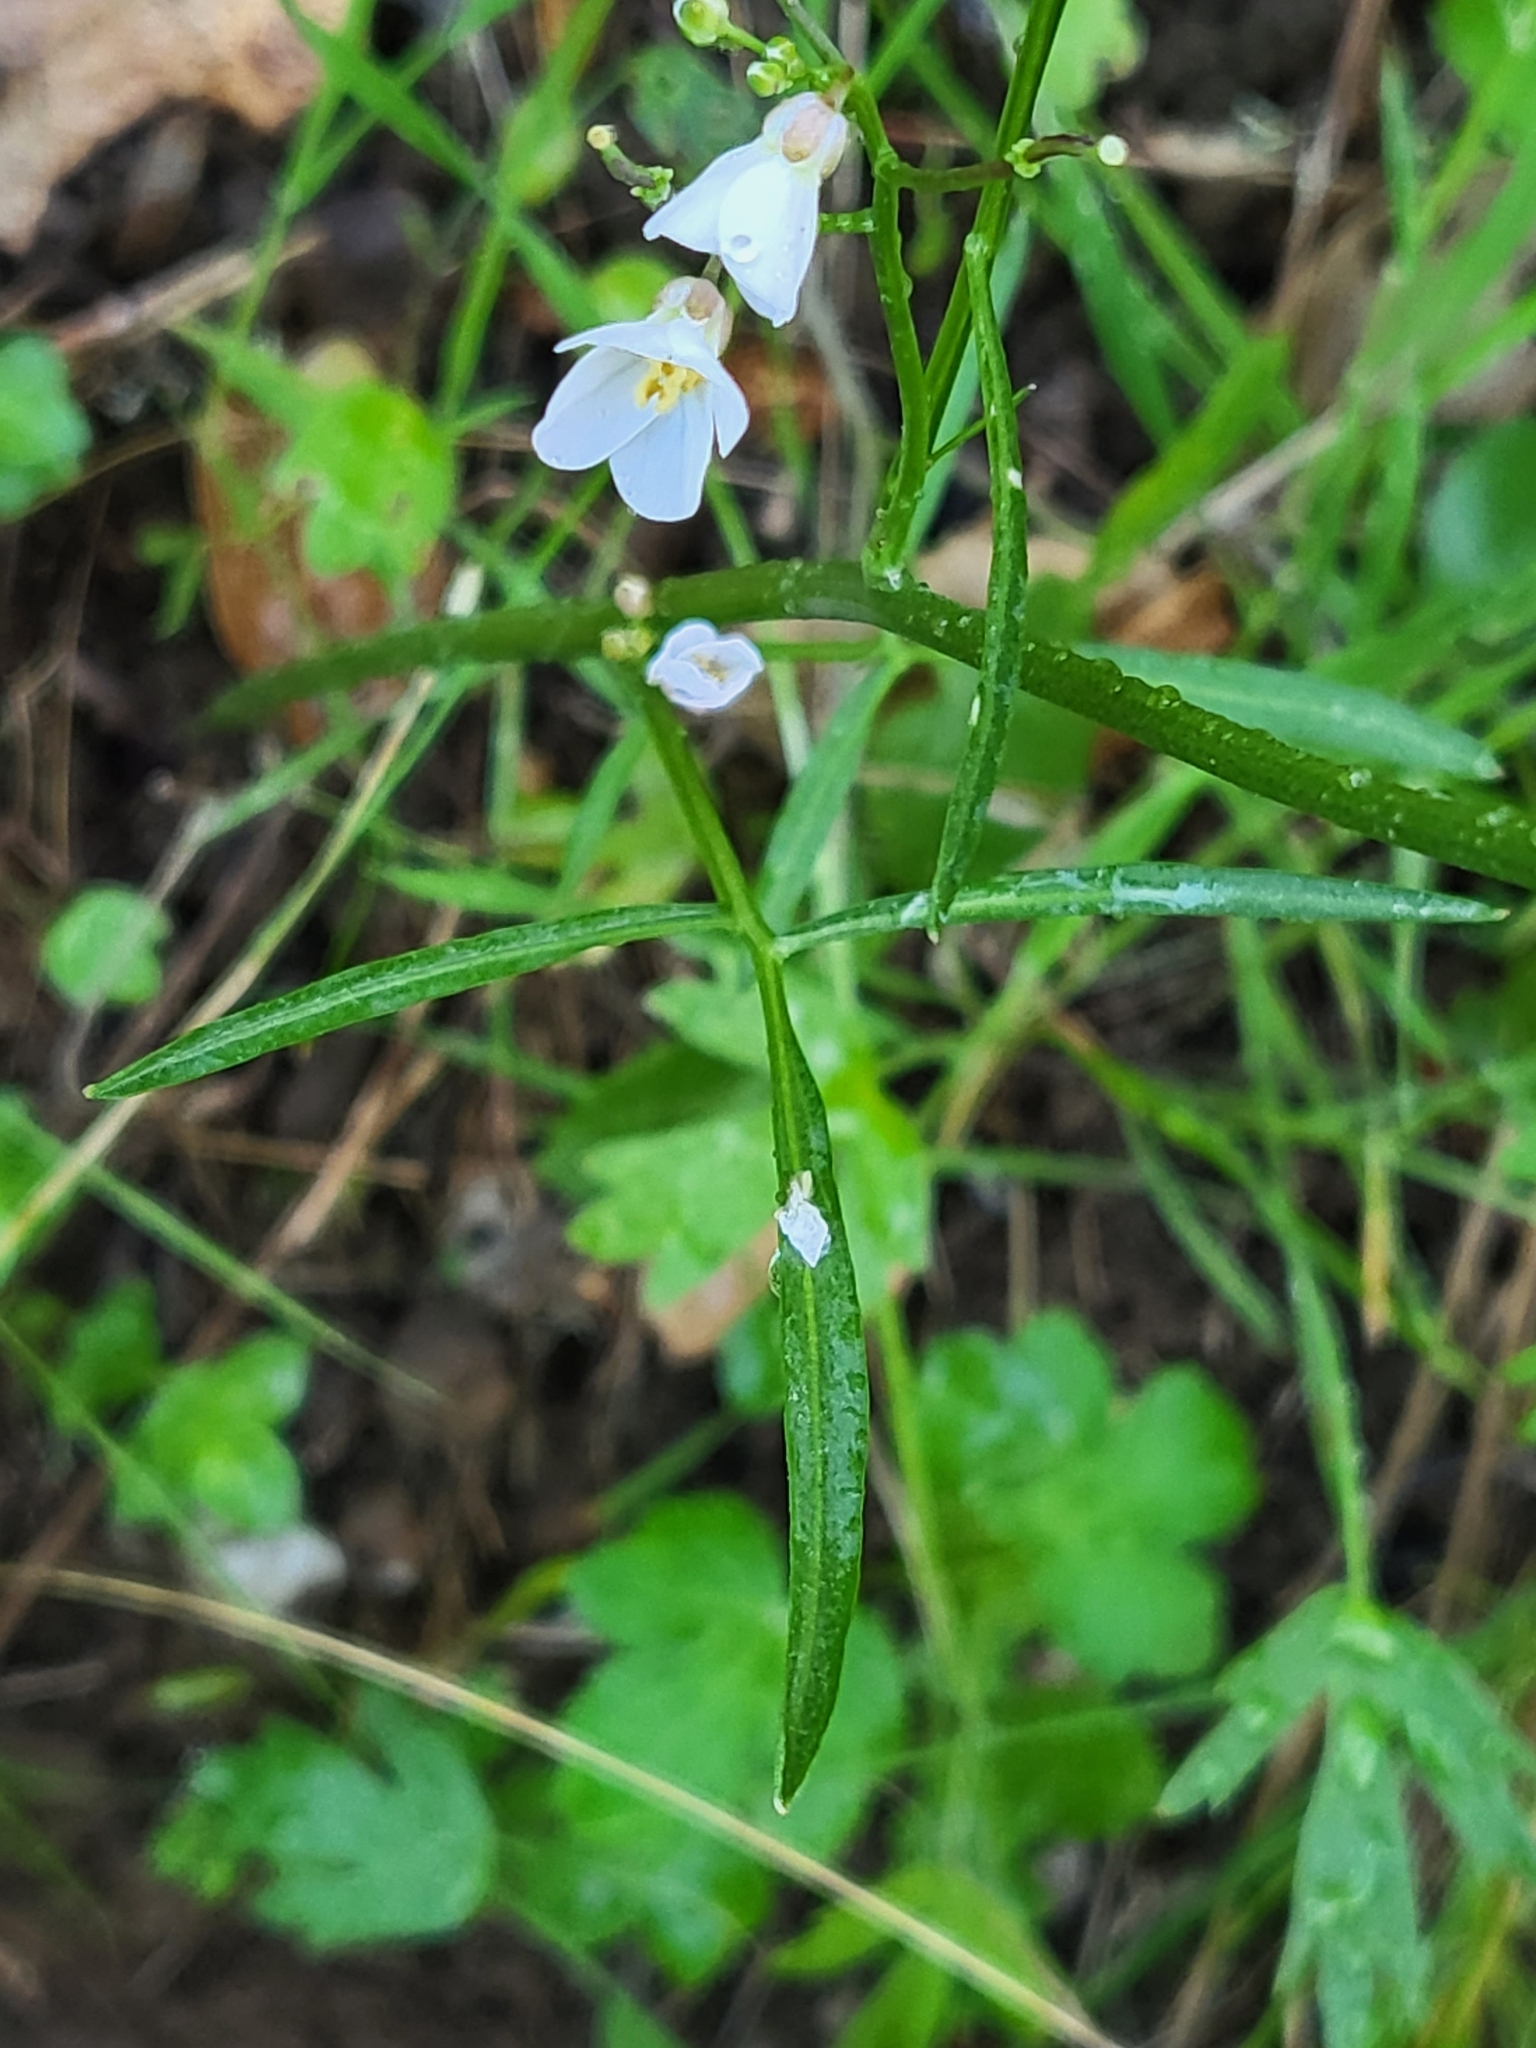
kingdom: Plantae
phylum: Tracheophyta
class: Magnoliopsida
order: Brassicales
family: Brassicaceae
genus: Cardamine
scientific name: Cardamine californica
